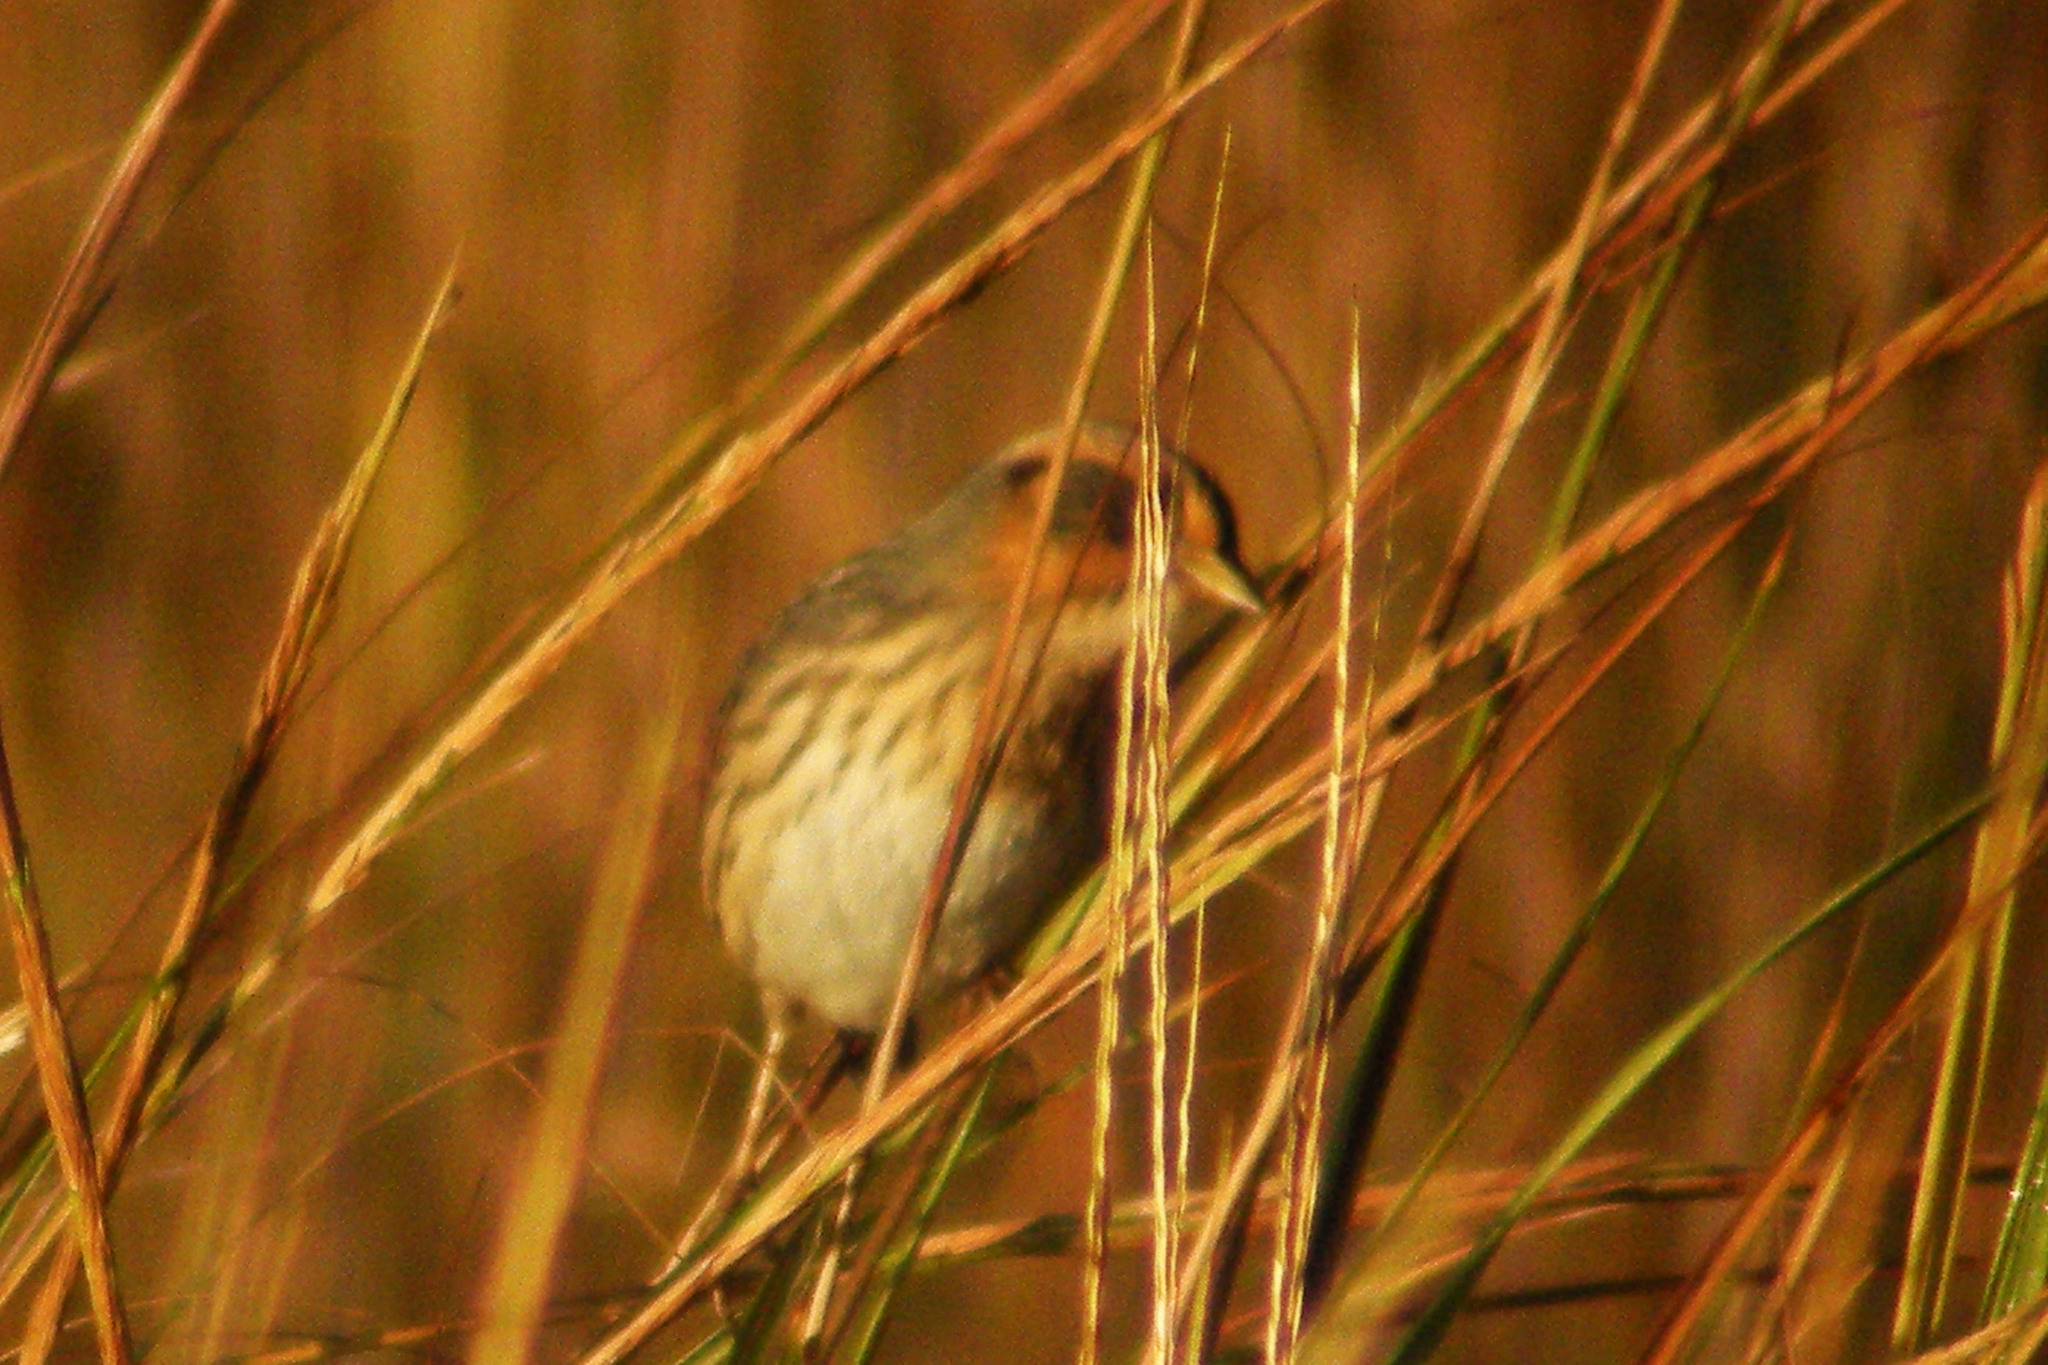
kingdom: Animalia
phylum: Chordata
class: Aves
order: Passeriformes
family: Passerellidae
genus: Ammospiza
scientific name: Ammospiza caudacuta
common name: Saltmarsh sparrow
